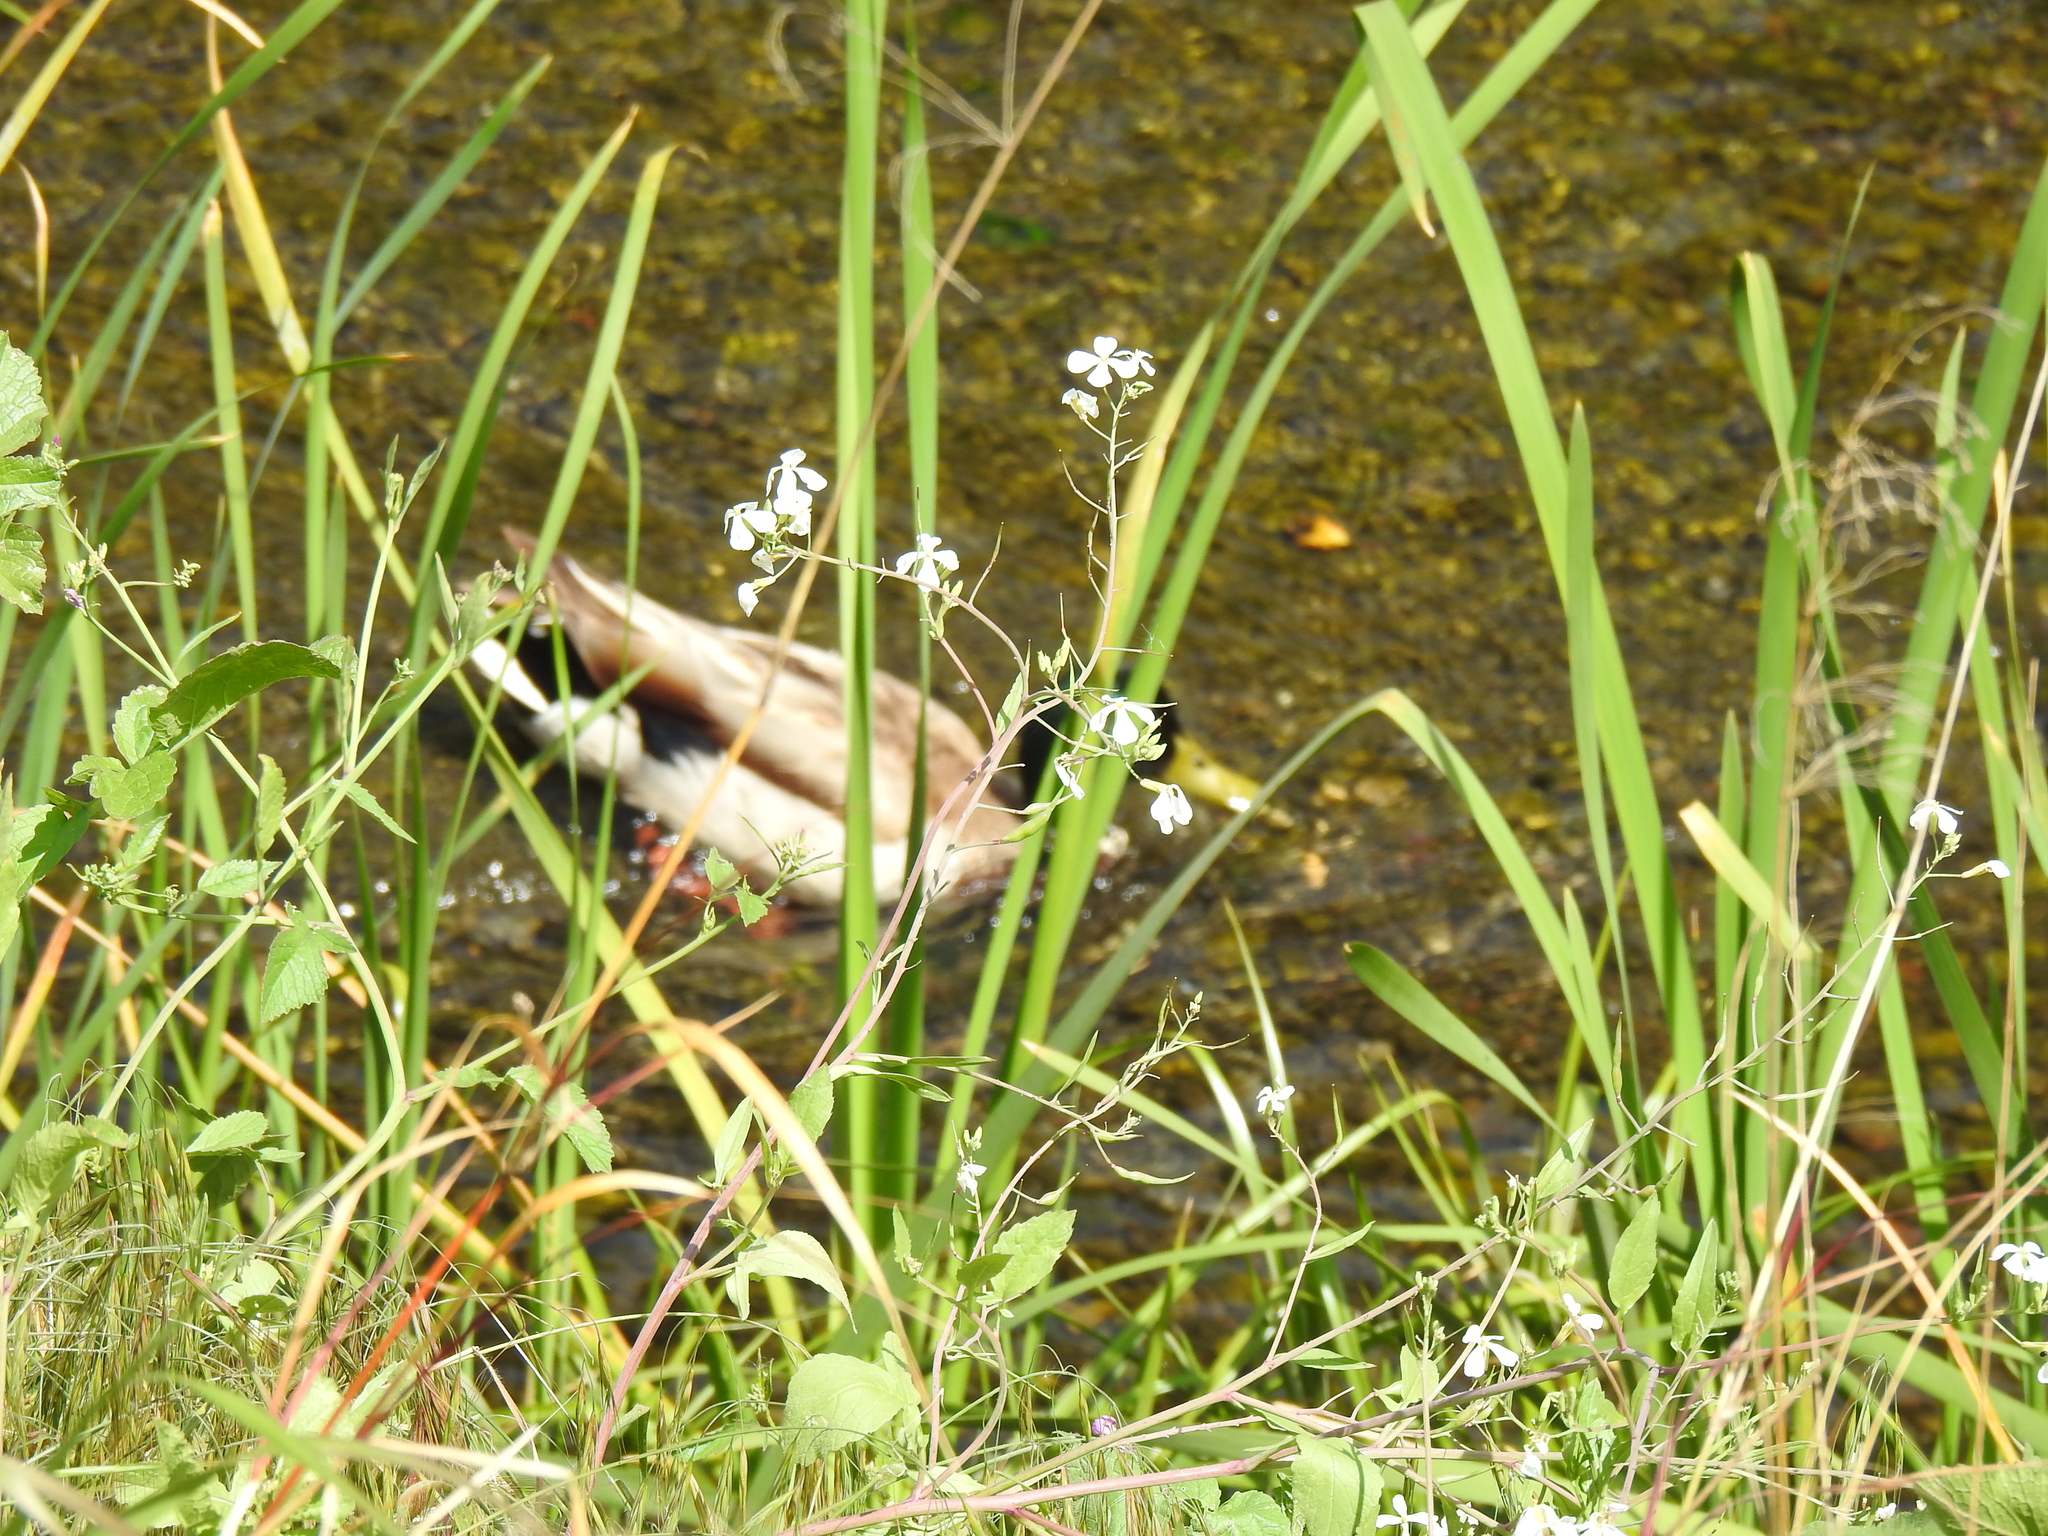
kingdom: Animalia
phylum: Chordata
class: Aves
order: Anseriformes
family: Anatidae
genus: Anas
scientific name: Anas platyrhynchos
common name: Mallard
